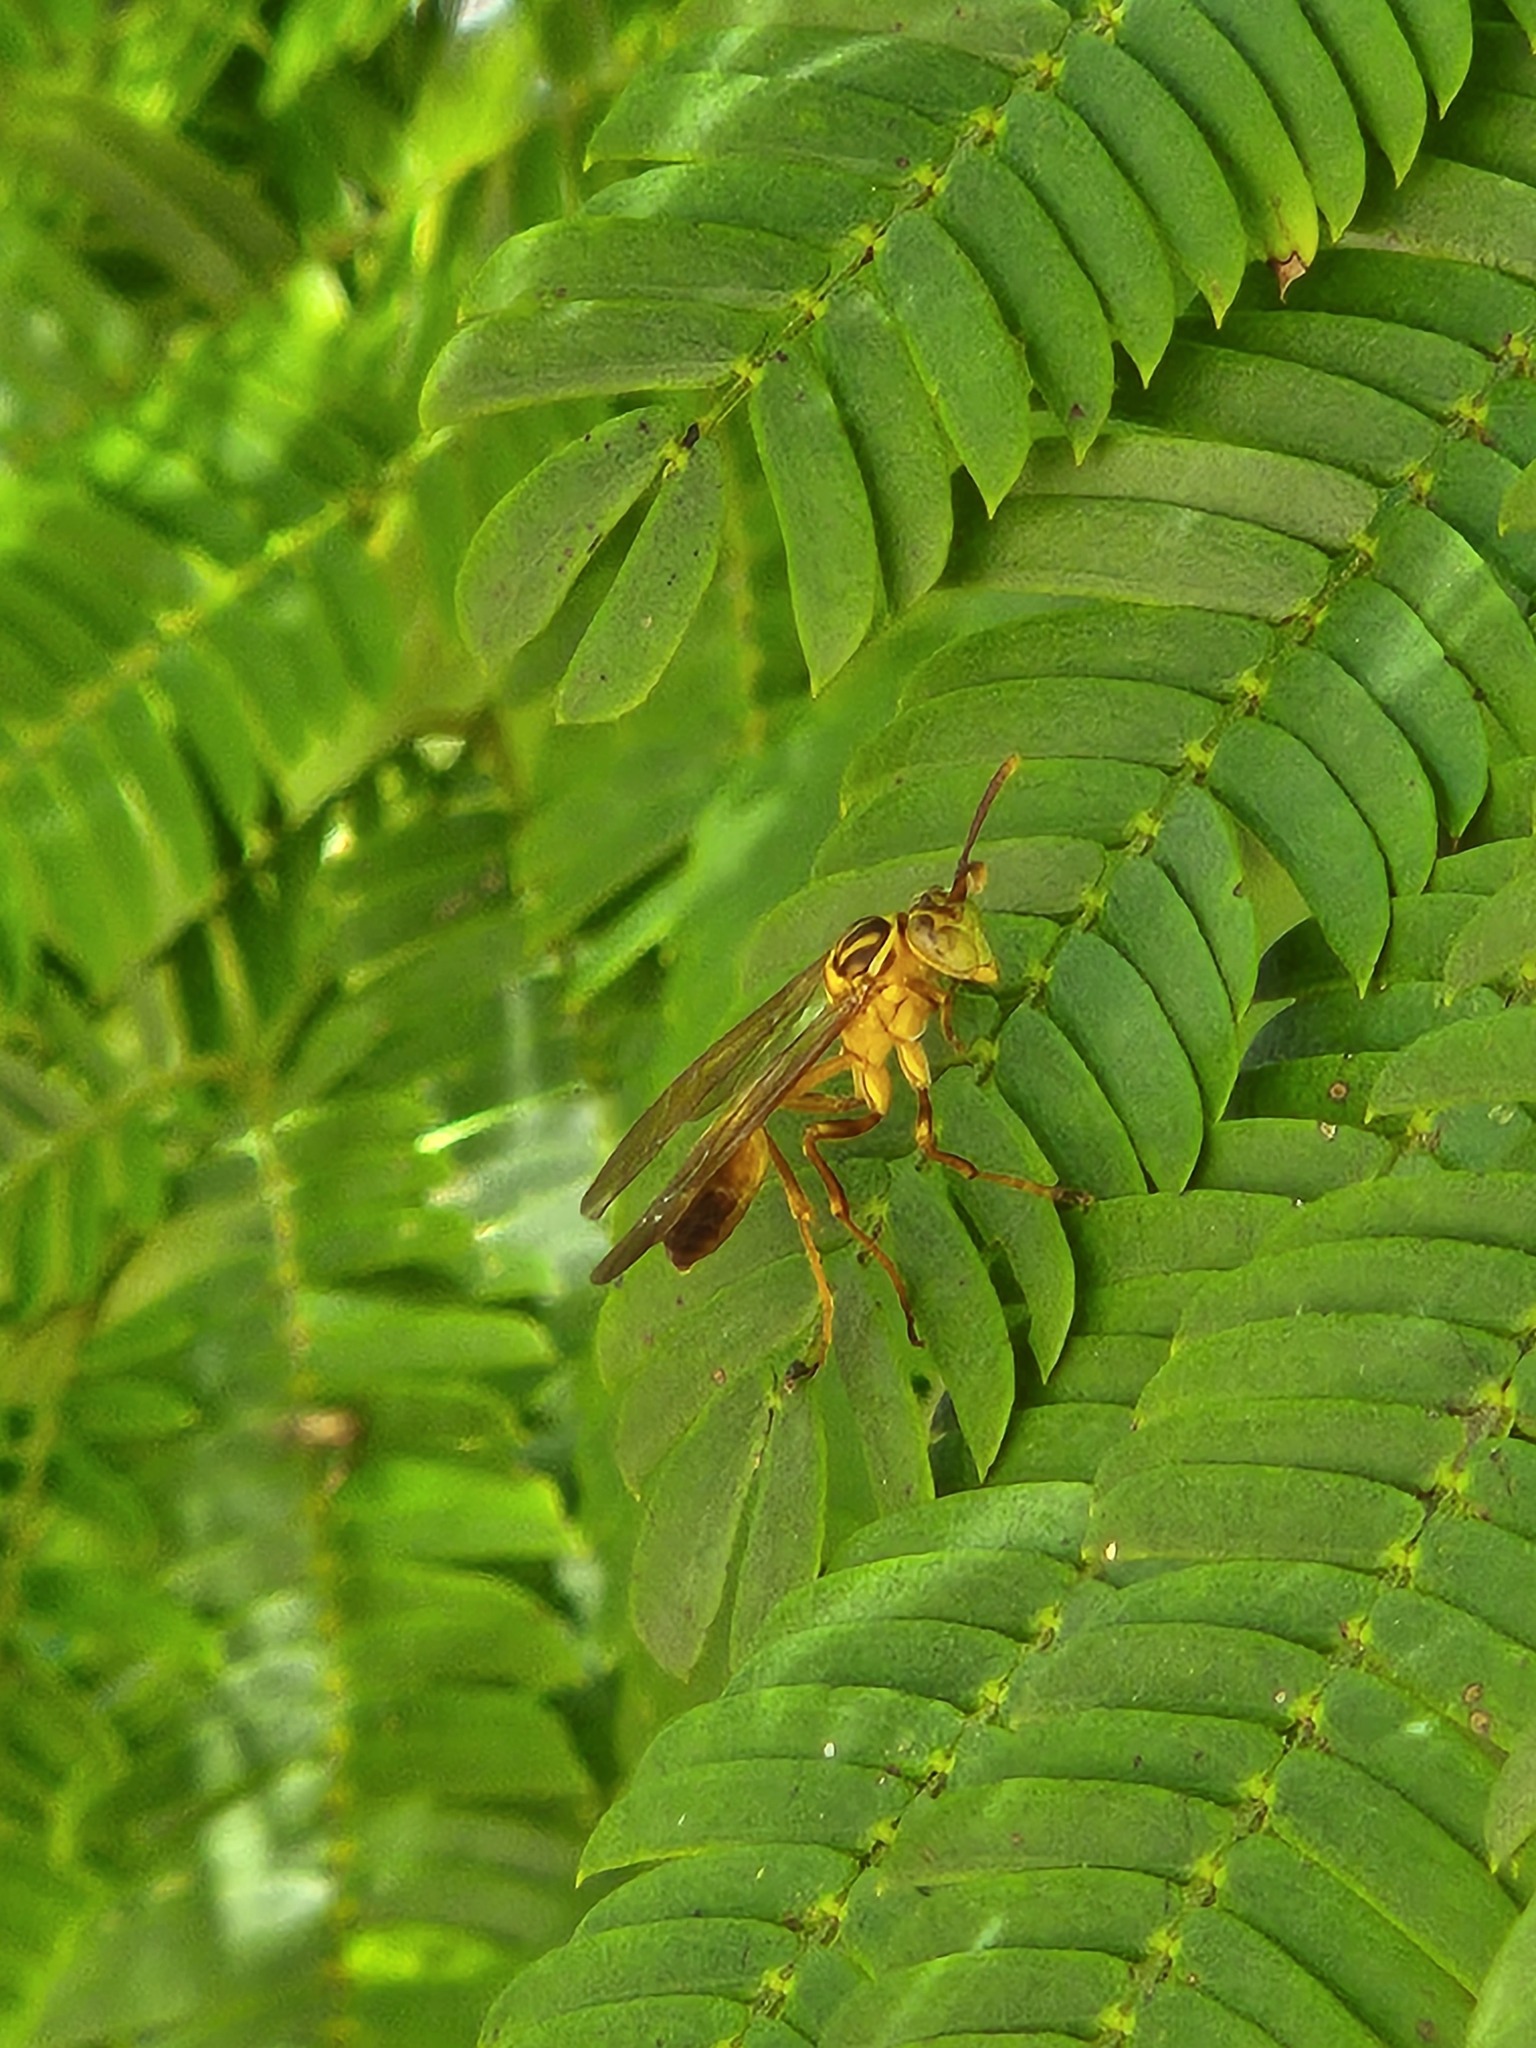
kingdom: Animalia
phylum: Arthropoda
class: Insecta
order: Hymenoptera
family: Vespidae
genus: Mischocyttarus
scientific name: Mischocyttarus cerberus
